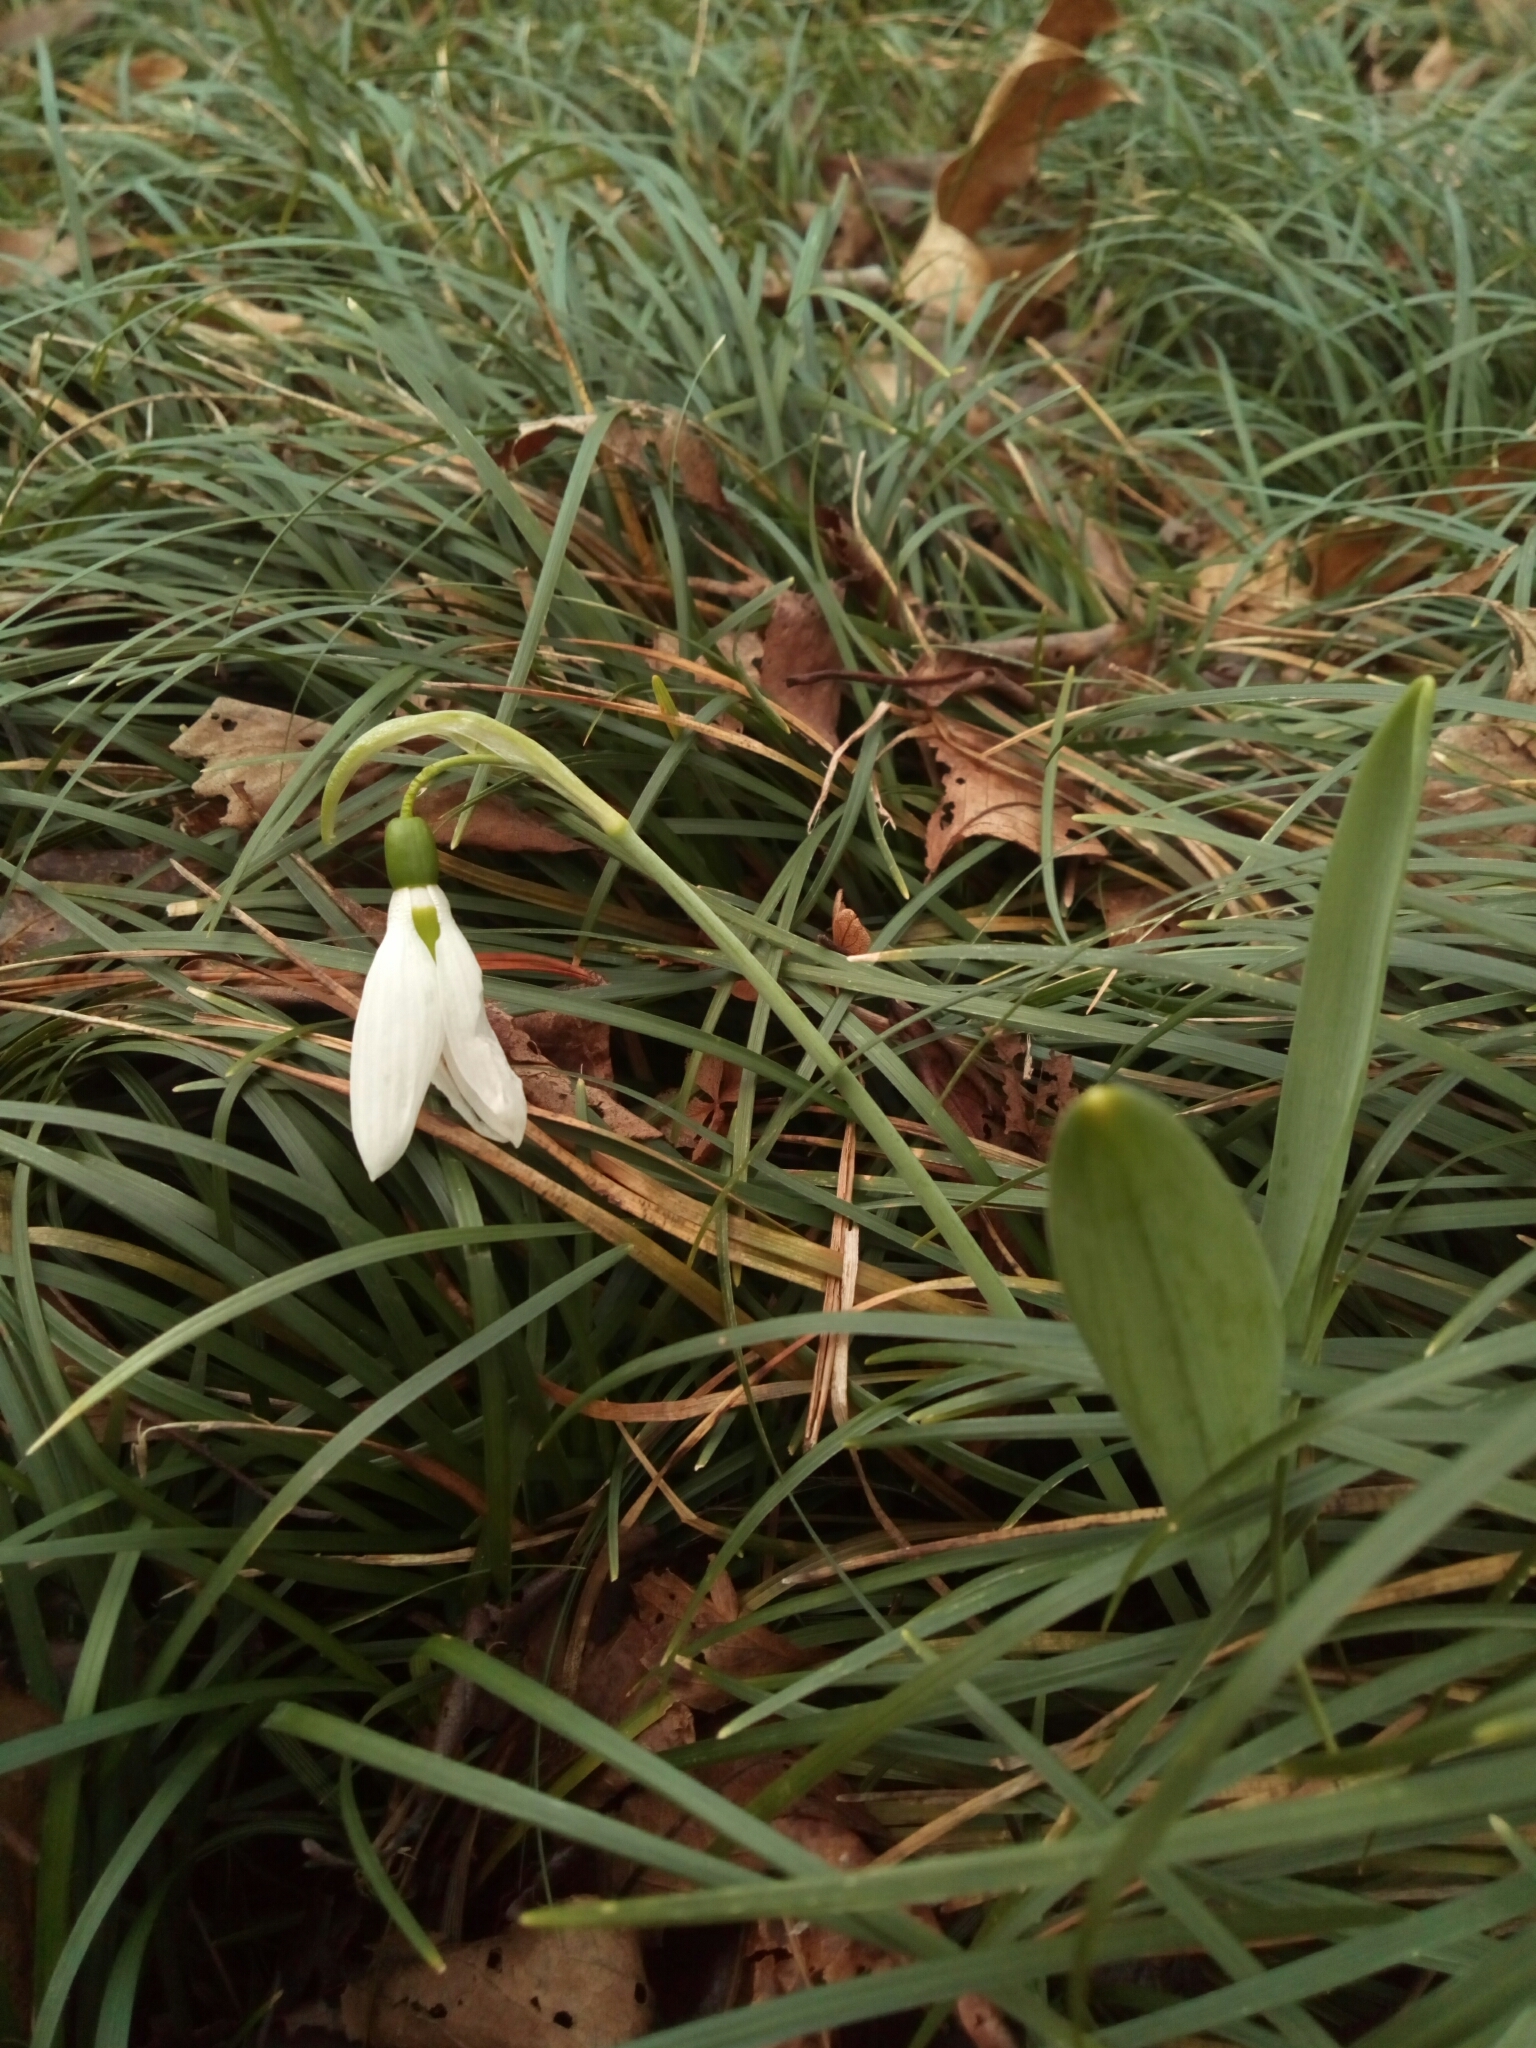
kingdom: Plantae
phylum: Tracheophyta
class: Liliopsida
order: Asparagales
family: Amaryllidaceae
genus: Galanthus
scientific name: Galanthus elwesii
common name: Greater snowdrop
